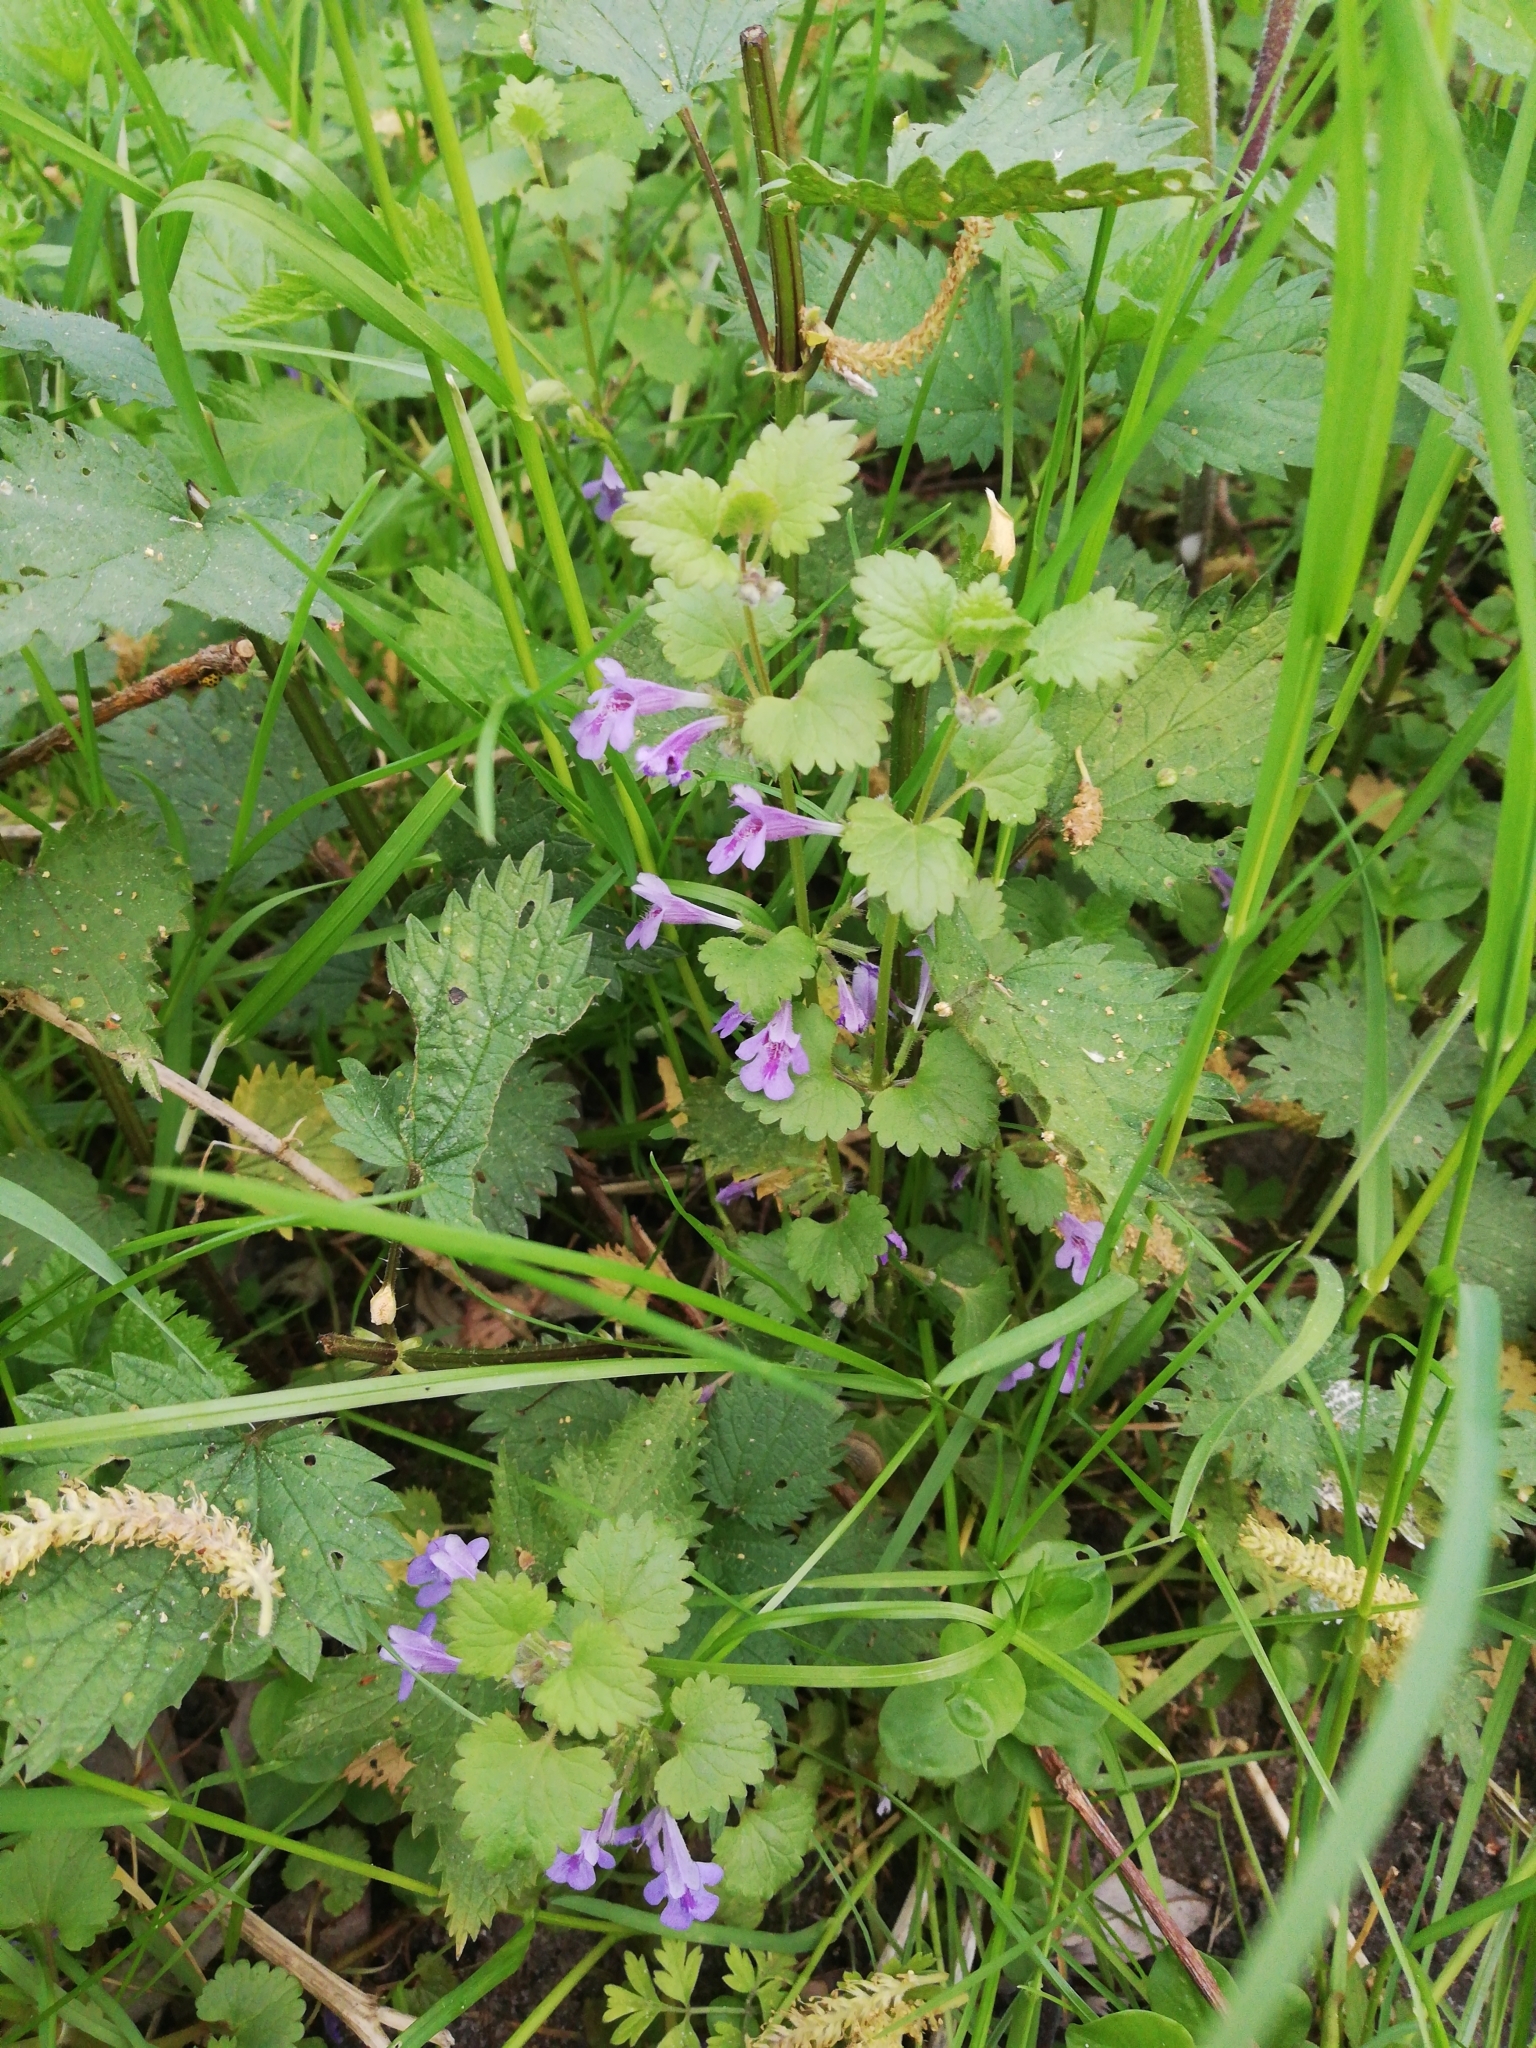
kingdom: Plantae
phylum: Tracheophyta
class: Magnoliopsida
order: Lamiales
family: Lamiaceae
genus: Glechoma
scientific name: Glechoma hederacea
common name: Ground ivy
